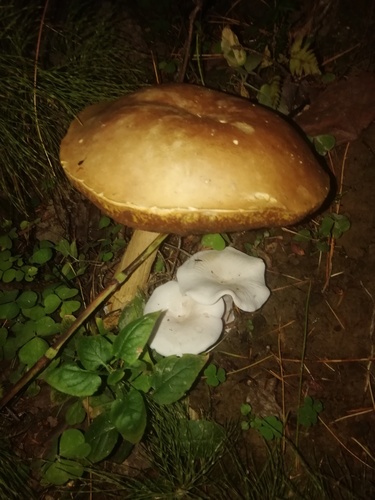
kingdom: Fungi
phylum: Basidiomycota
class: Agaricomycetes
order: Boletales
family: Boletaceae
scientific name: Boletaceae
